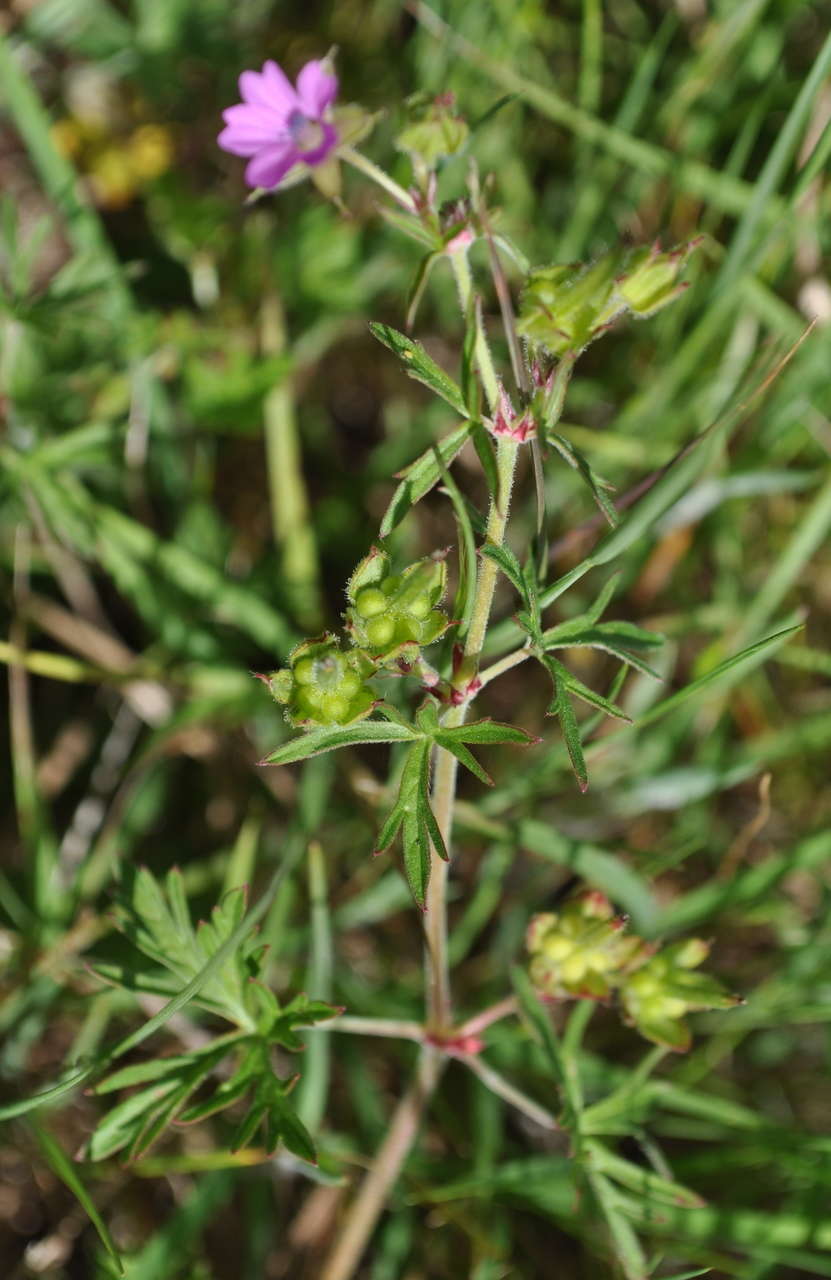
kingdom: Plantae
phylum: Tracheophyta
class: Magnoliopsida
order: Geraniales
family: Geraniaceae
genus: Geranium
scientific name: Geranium dissectum
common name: Cut-leaved crane's-bill
